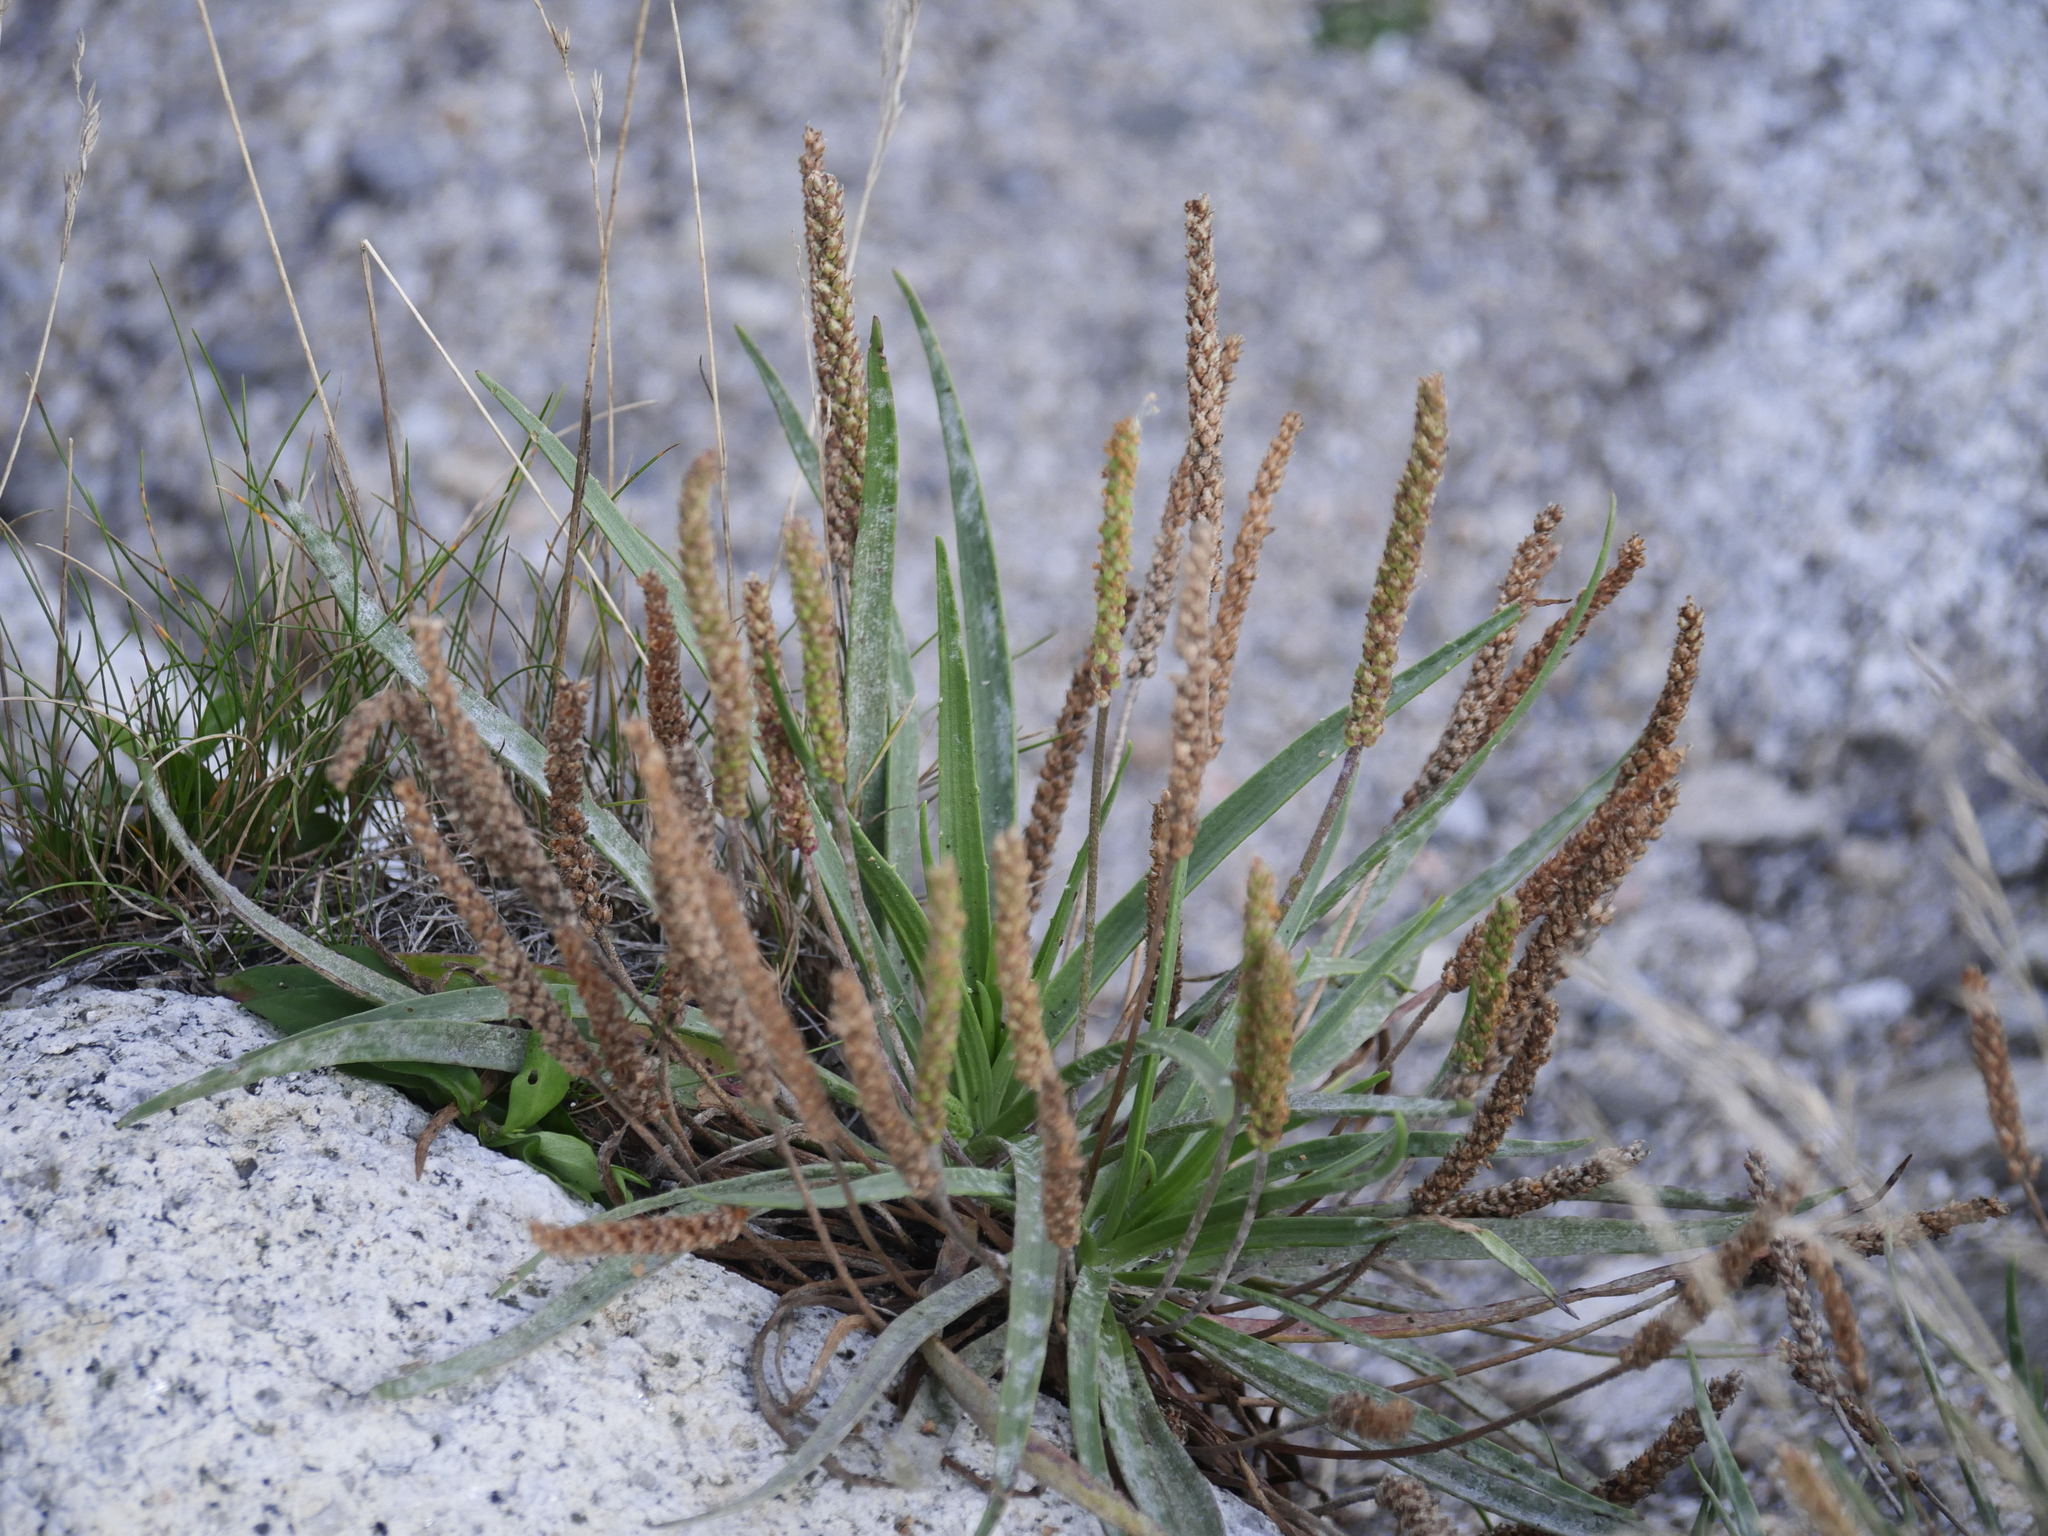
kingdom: Plantae
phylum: Tracheophyta
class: Magnoliopsida
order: Lamiales
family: Plantaginaceae
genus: Plantago
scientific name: Plantago maritima
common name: Sea plantain
